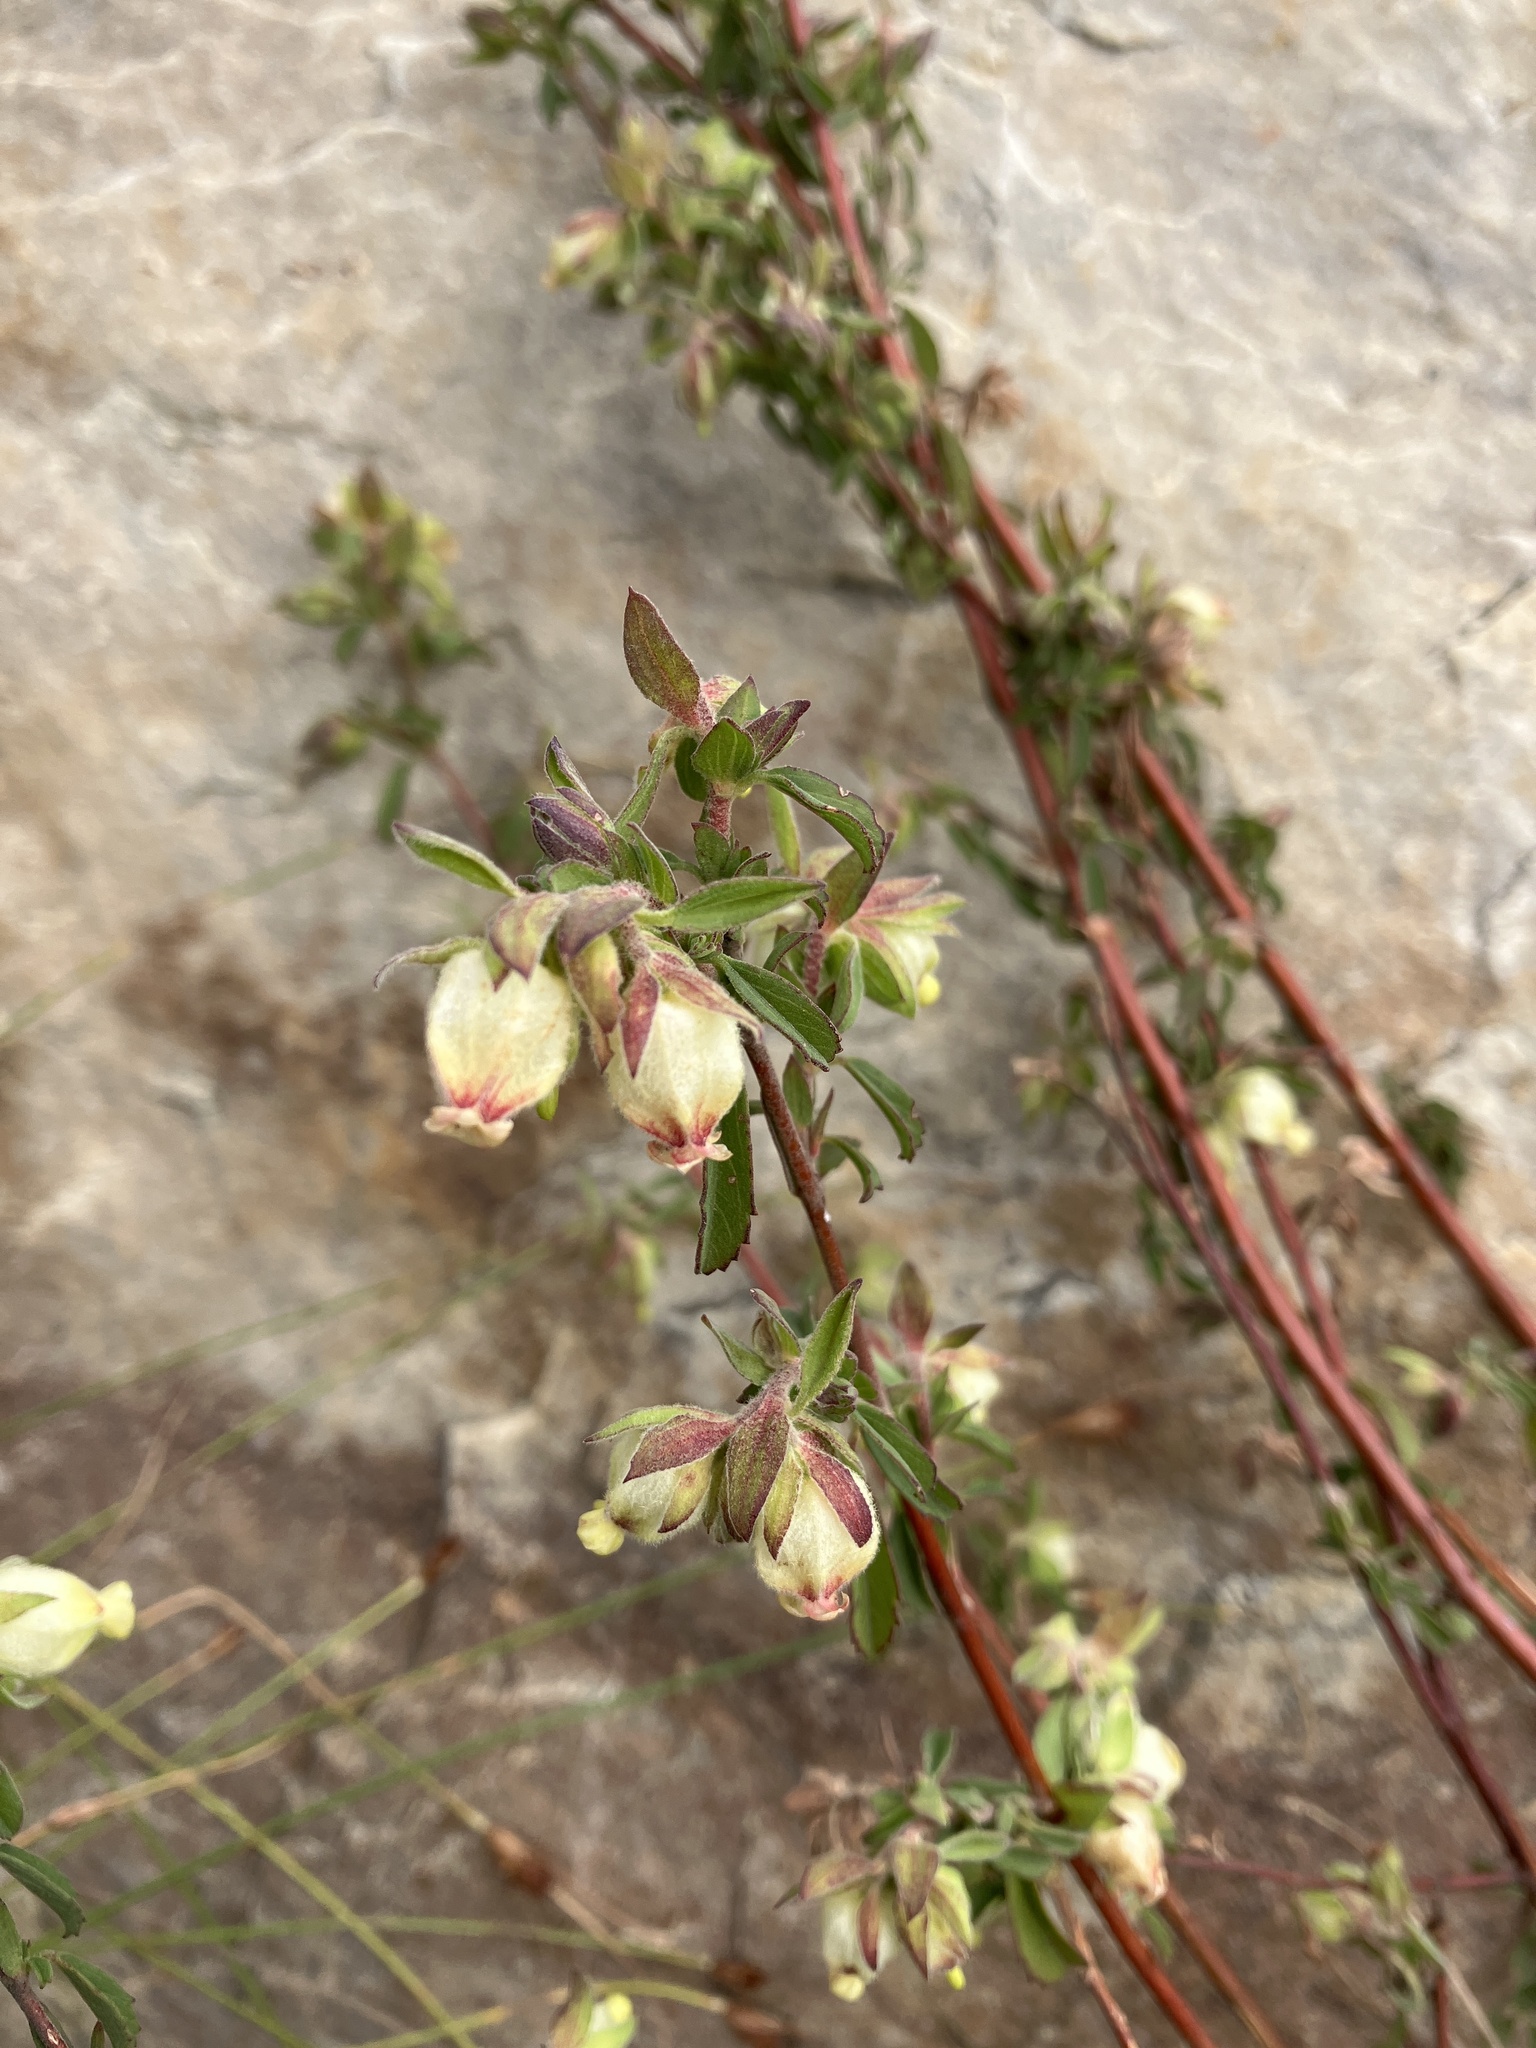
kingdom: Plantae
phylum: Tracheophyta
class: Magnoliopsida
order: Malvales
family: Malvaceae
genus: Hermannia
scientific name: Hermannia hyssopifolia
